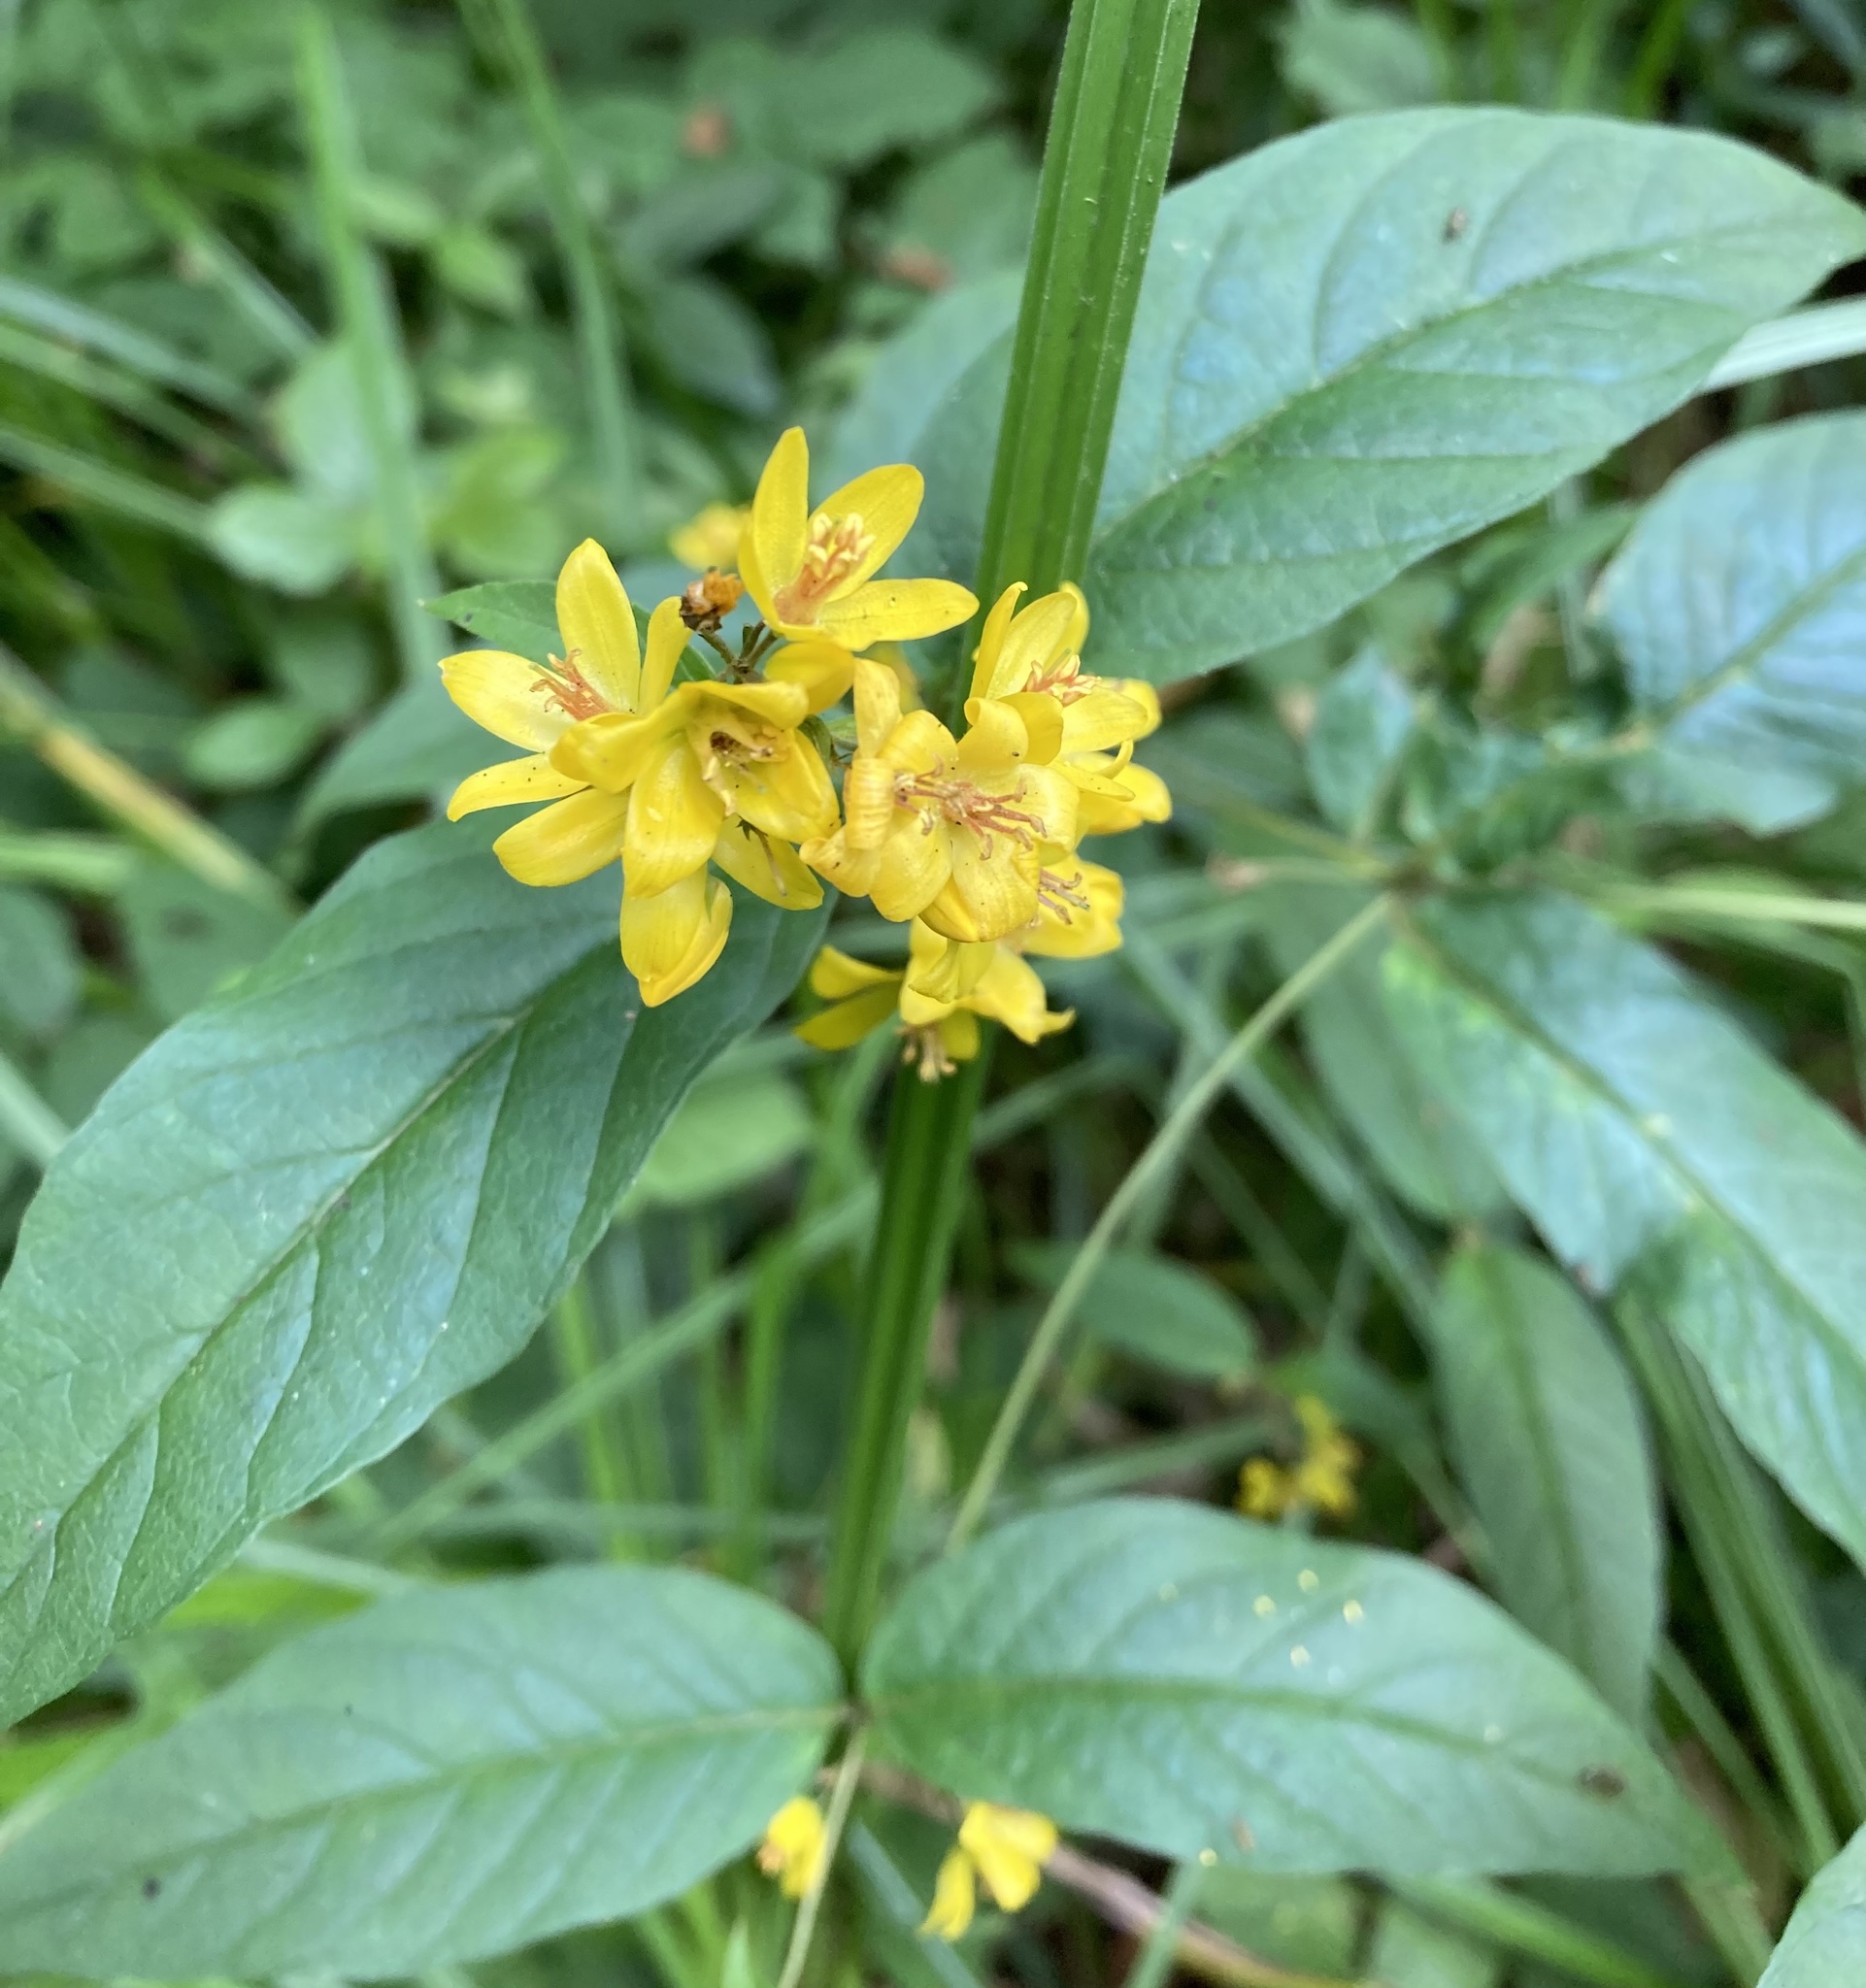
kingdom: Plantae
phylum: Tracheophyta
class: Magnoliopsida
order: Ericales
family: Primulaceae
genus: Lysimachia
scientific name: Lysimachia vulgaris
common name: Yellow loosestrife
